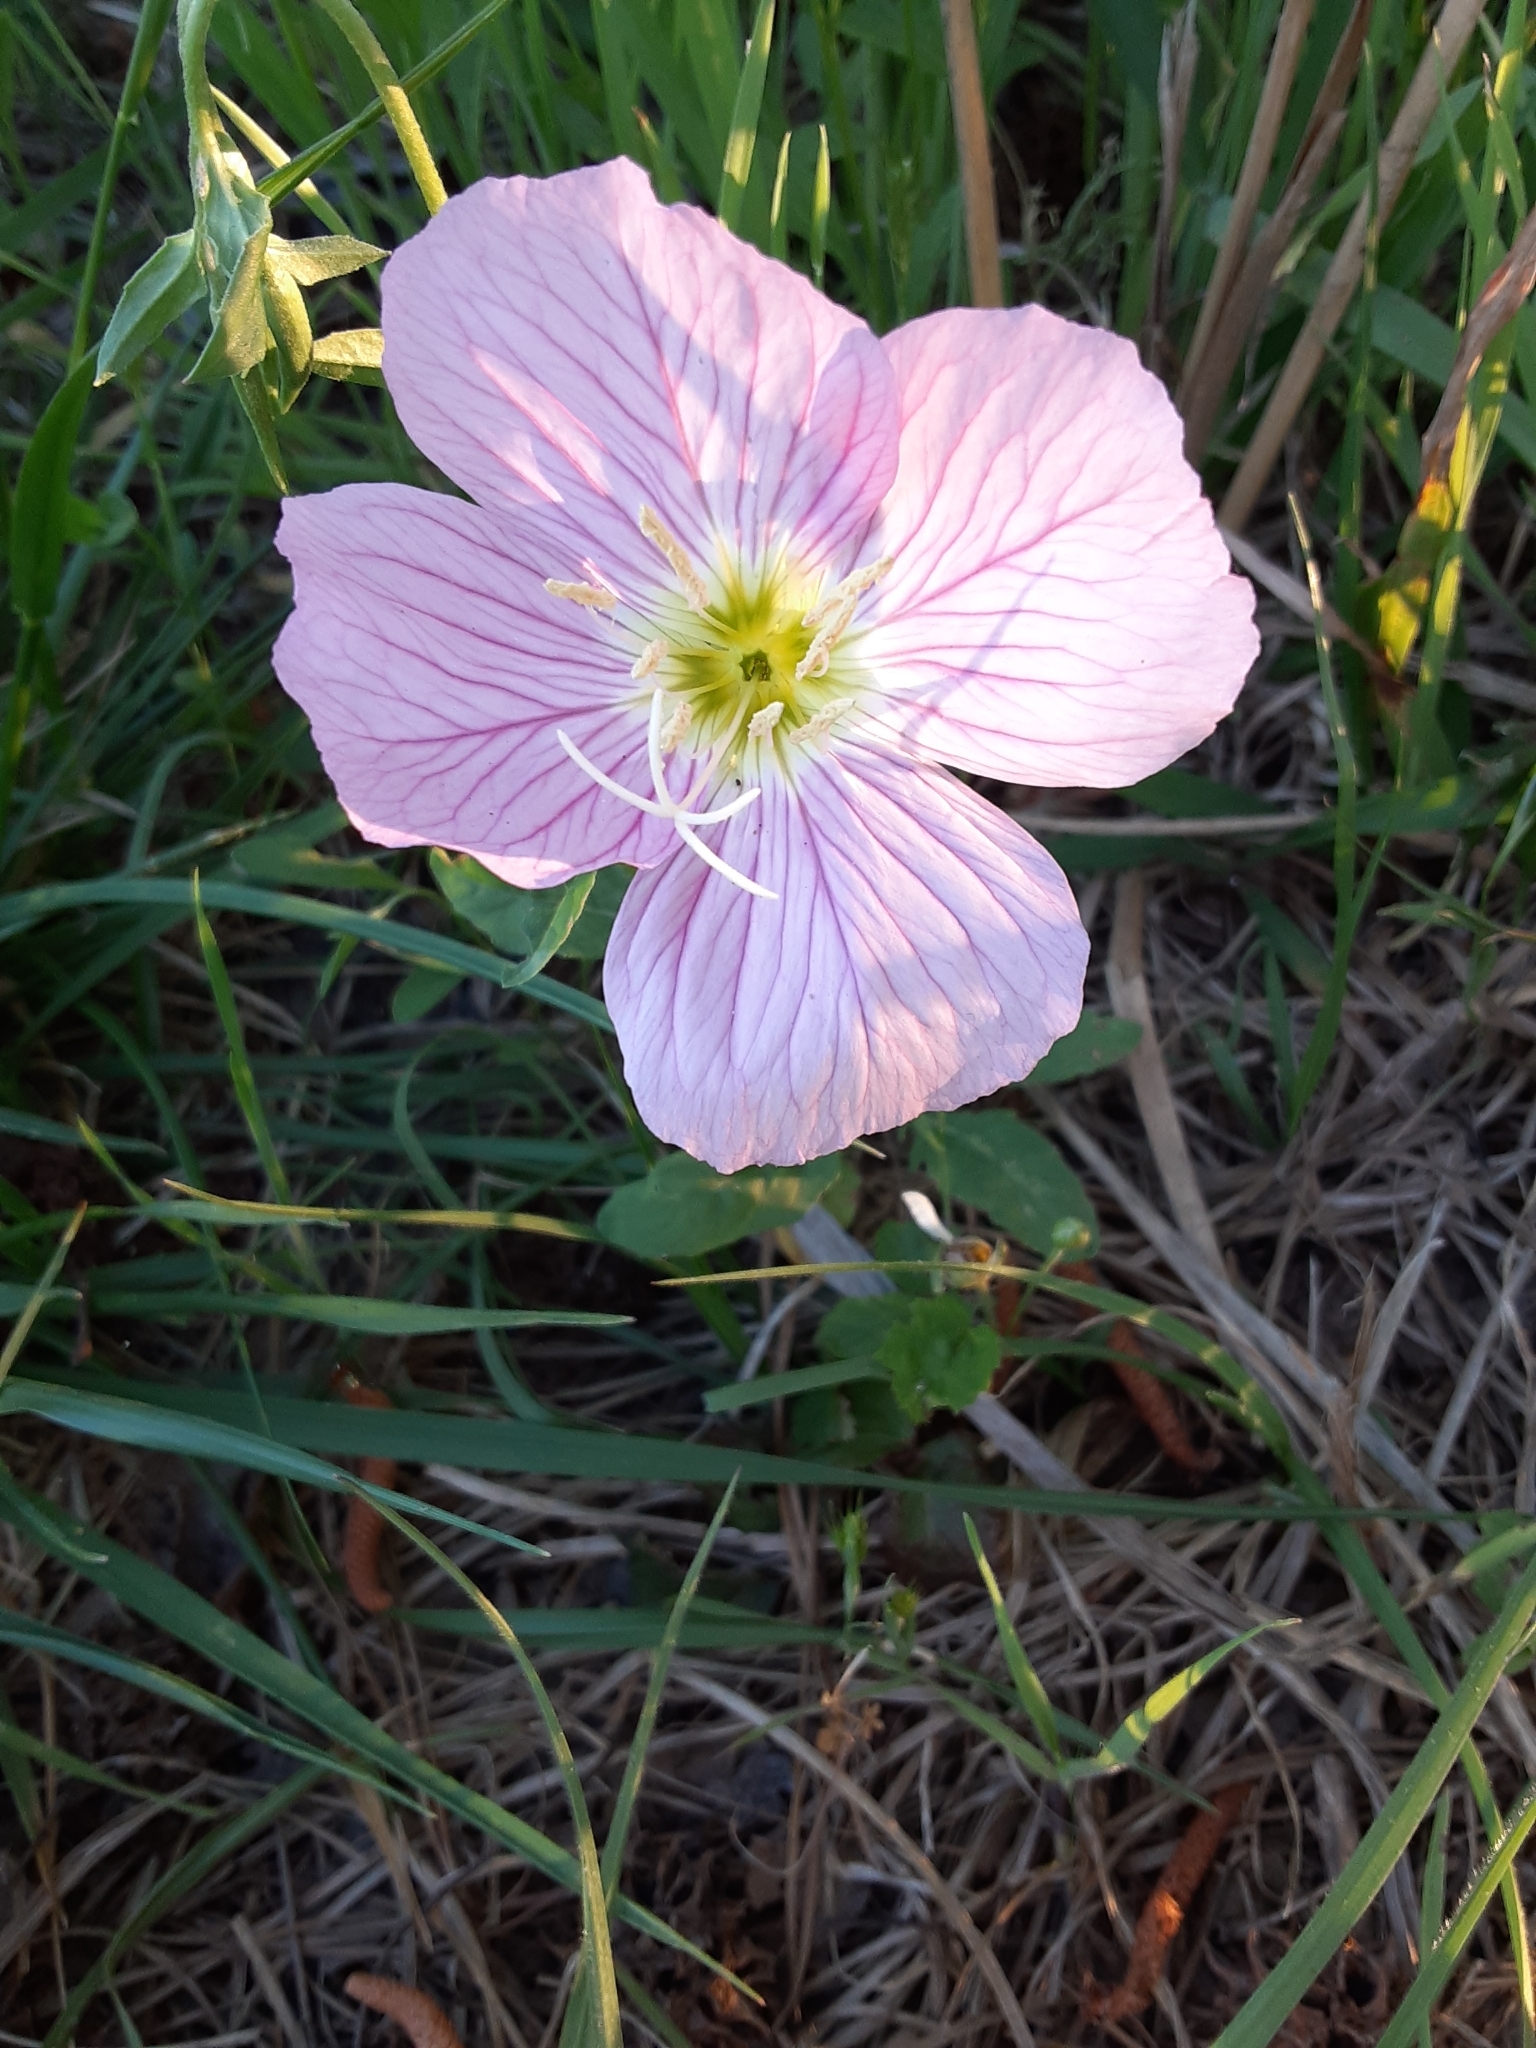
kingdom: Plantae
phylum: Tracheophyta
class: Magnoliopsida
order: Myrtales
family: Onagraceae
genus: Oenothera
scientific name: Oenothera speciosa
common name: White evening-primrose
